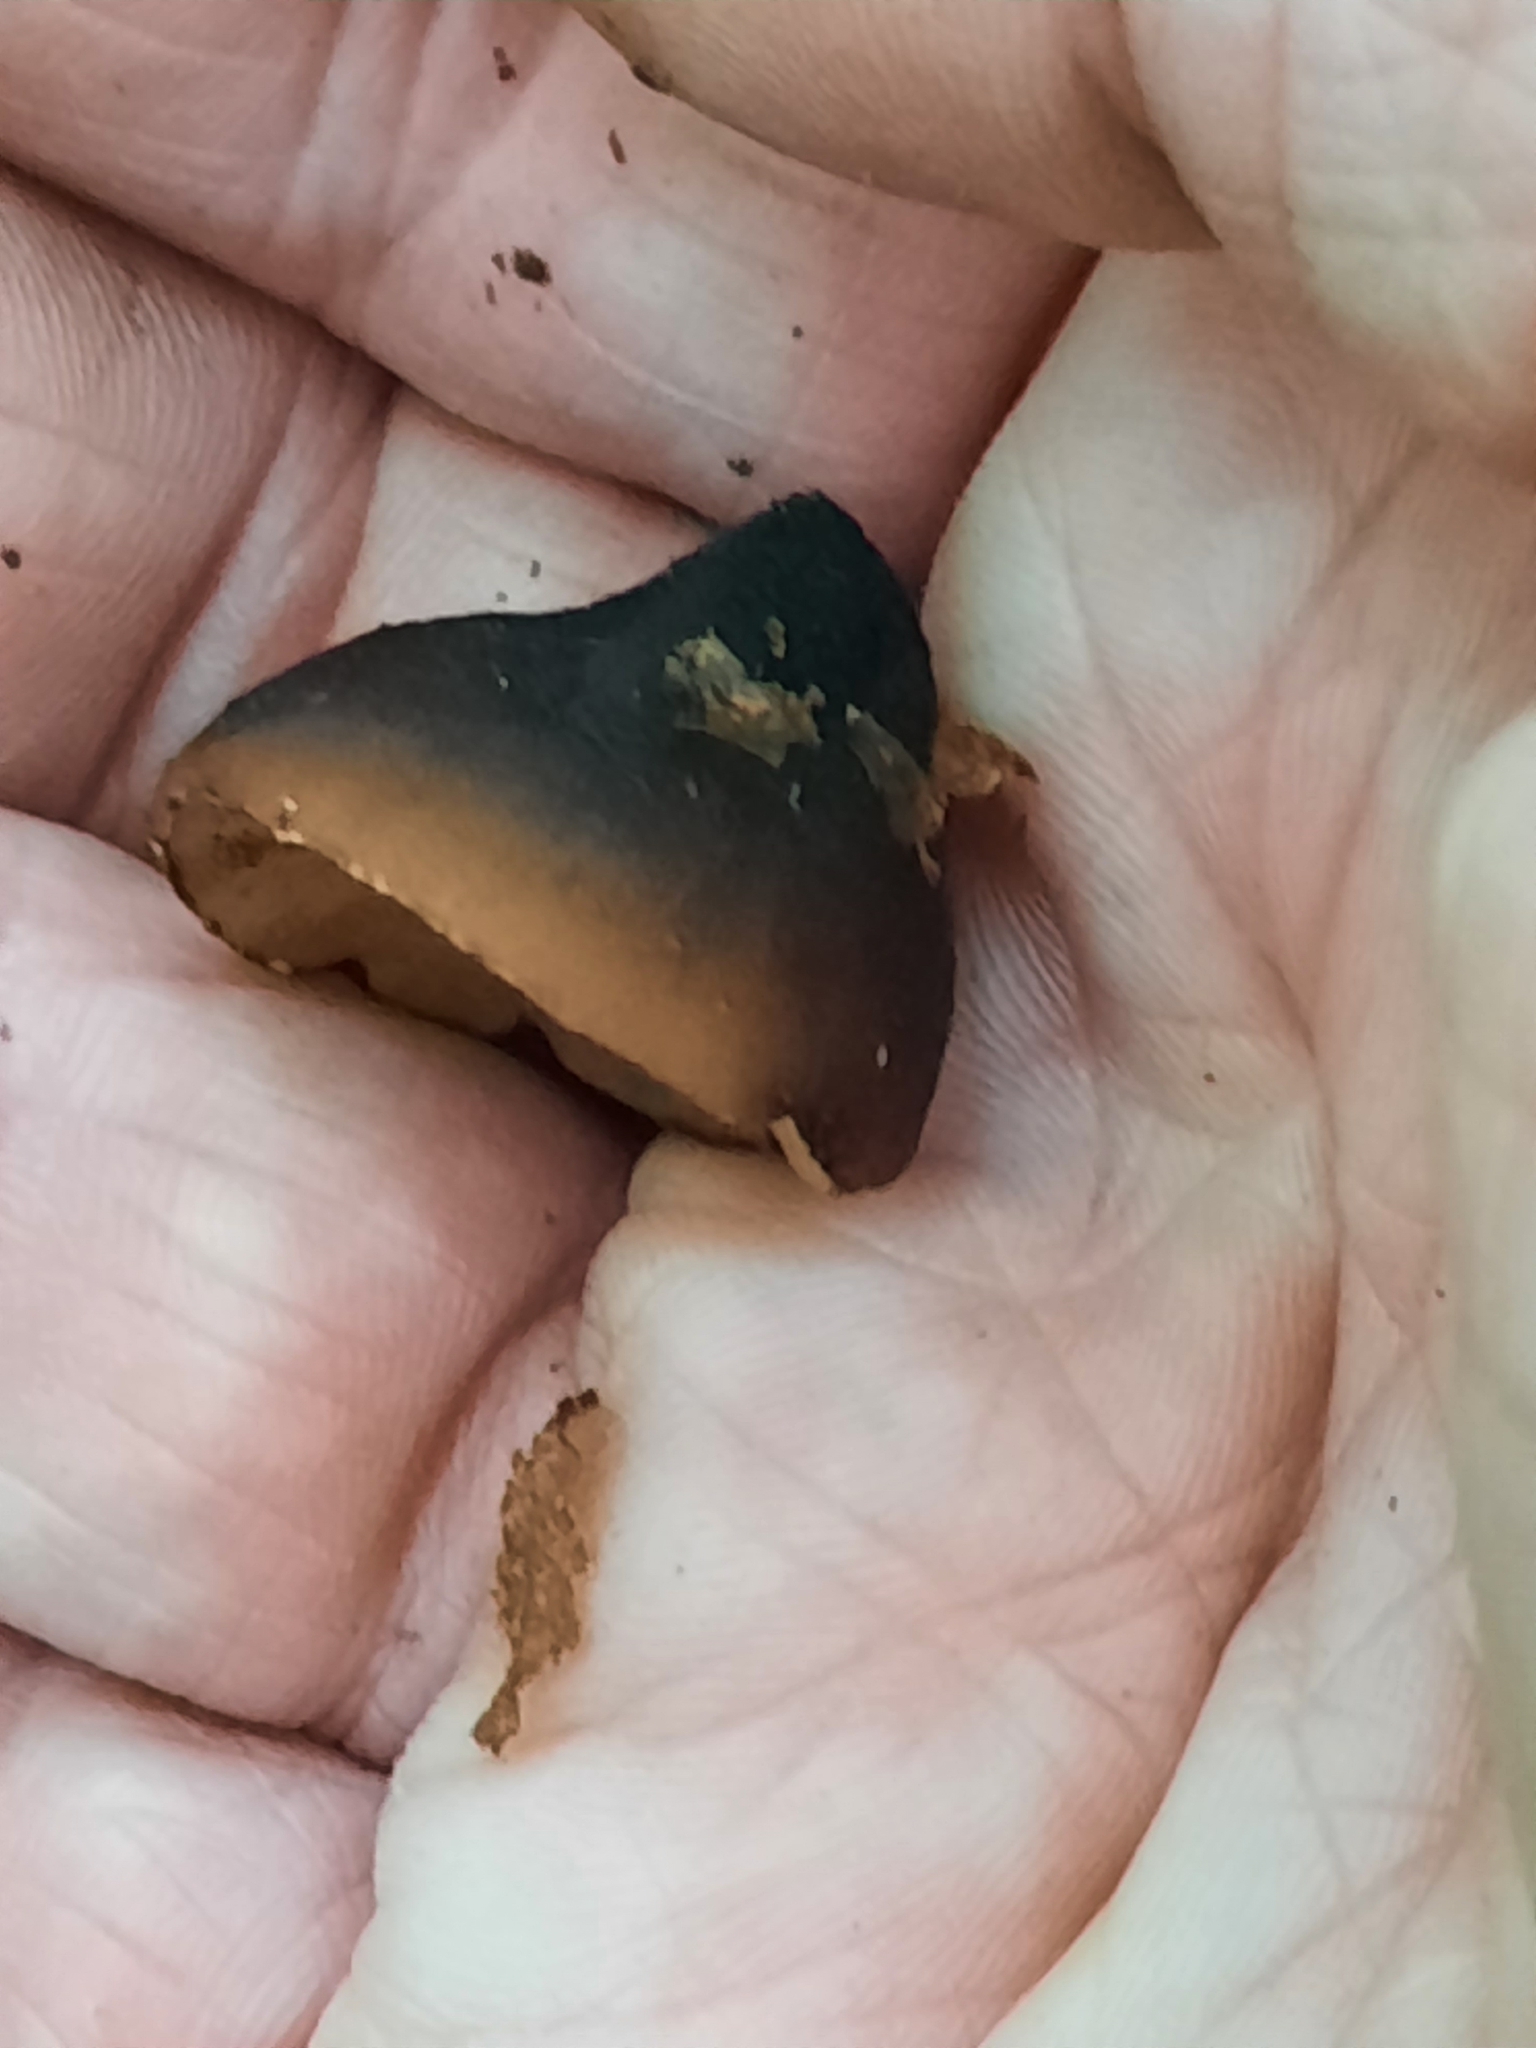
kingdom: Fungi
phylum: Ascomycota
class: Pezizomycetes
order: Pezizales
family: Sarcosomataceae
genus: Galiella
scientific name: Galiella rufa
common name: Hairy rubber cup
